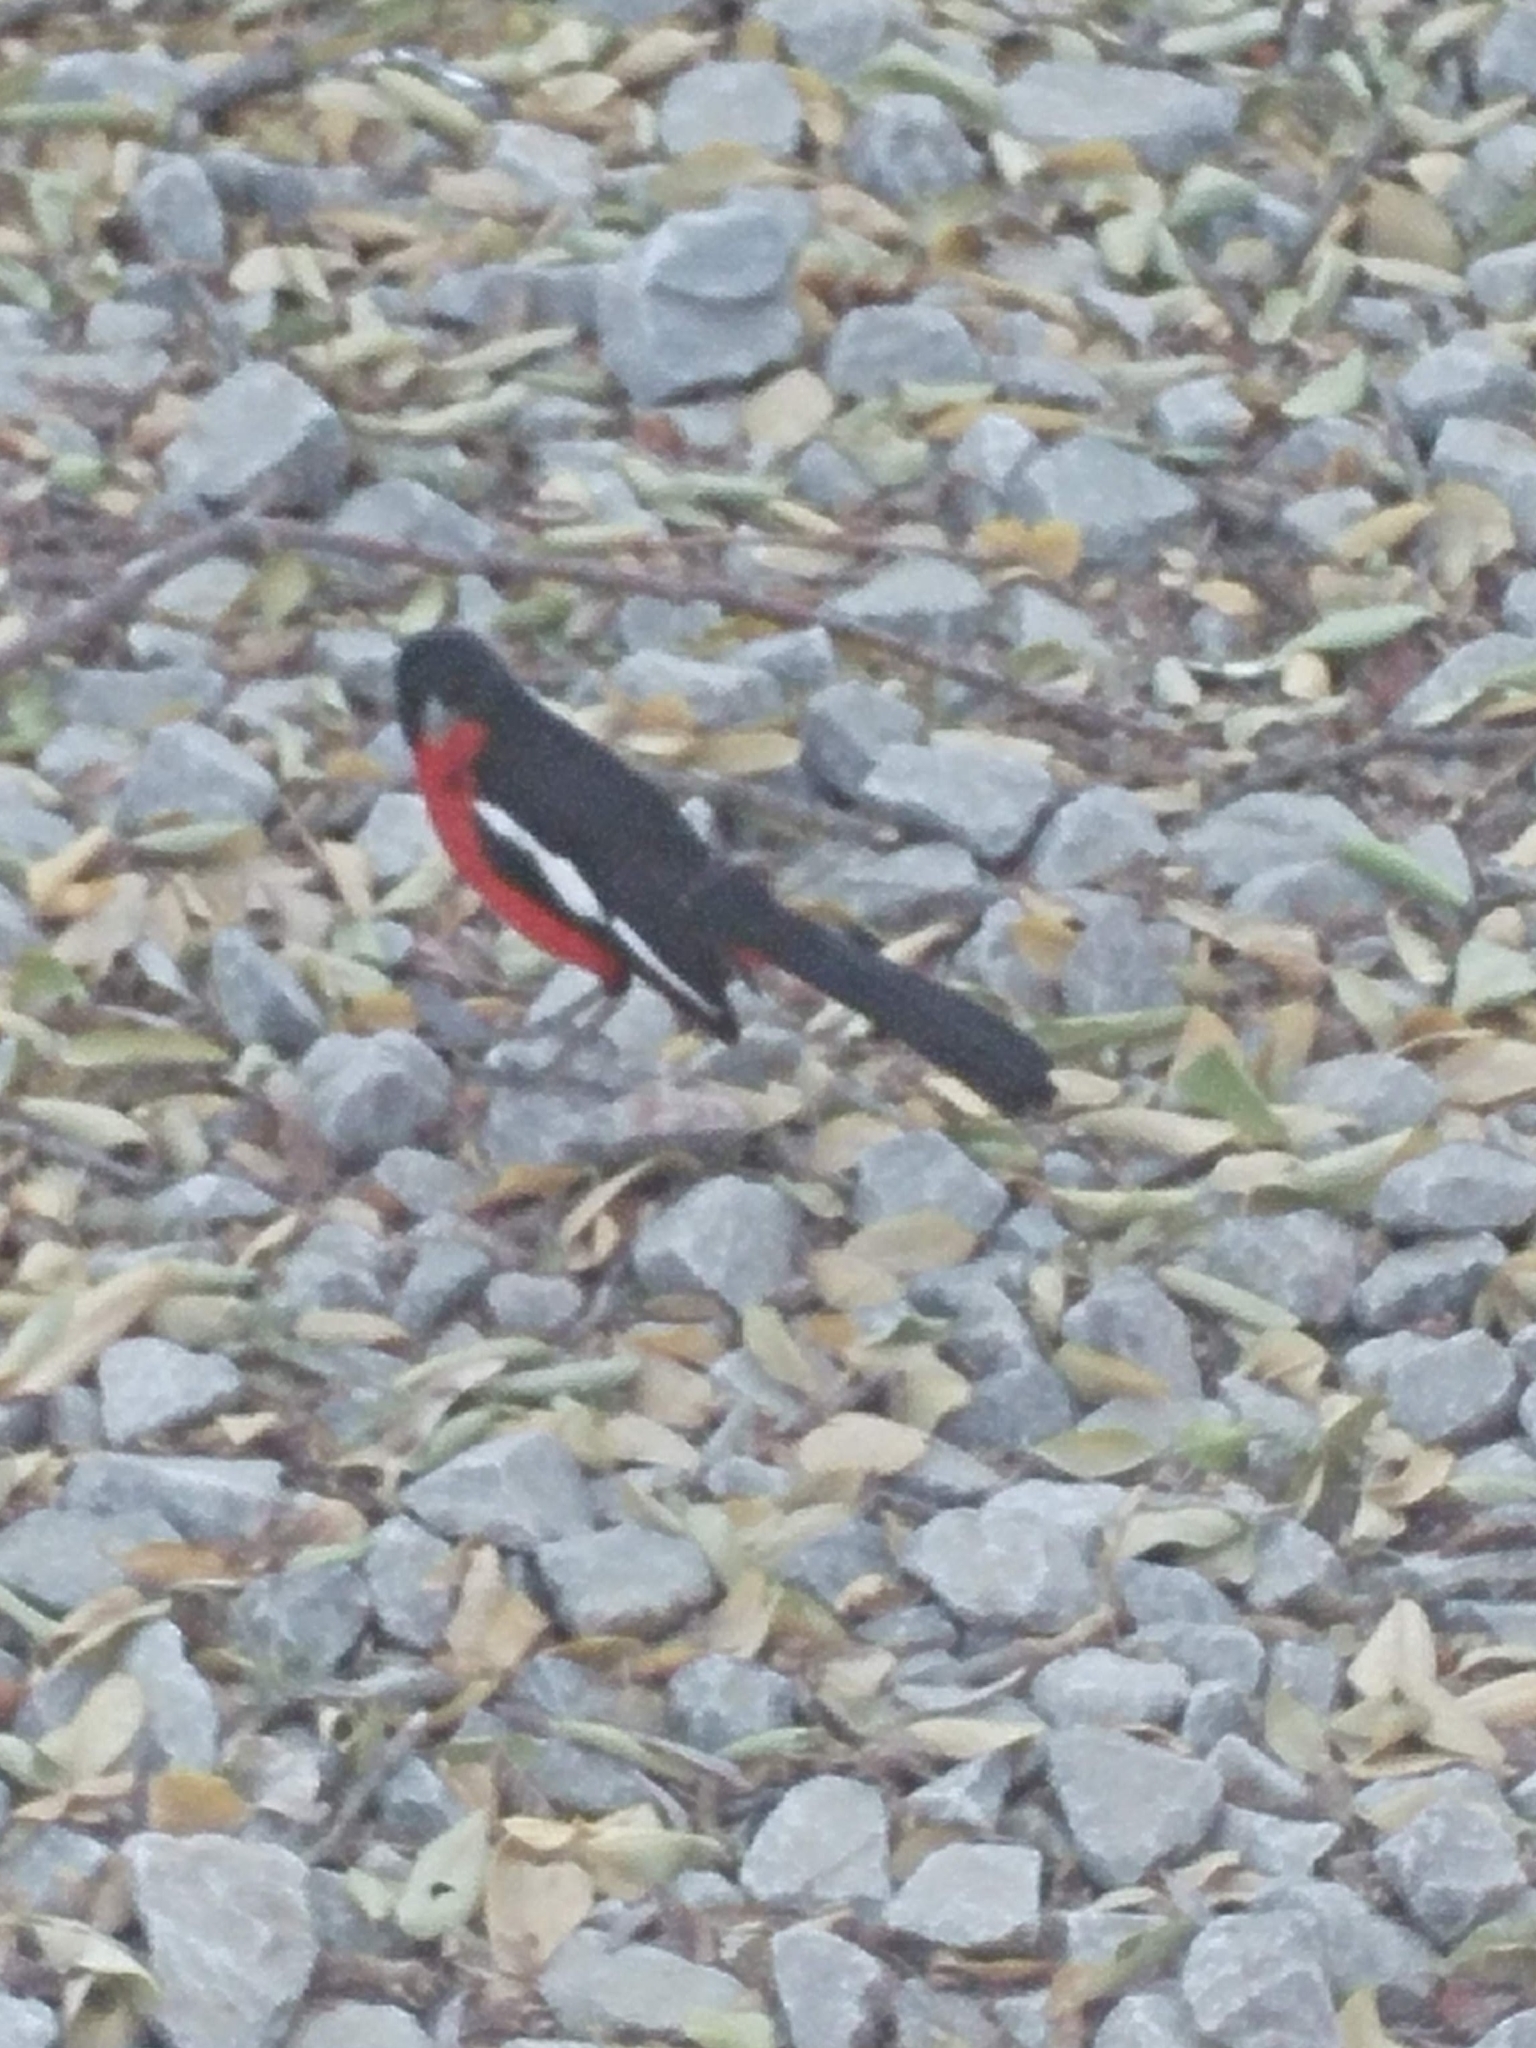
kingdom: Animalia
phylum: Chordata
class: Aves
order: Passeriformes
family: Malaconotidae
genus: Laniarius
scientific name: Laniarius atrococcineus
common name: Crimson-breasted shrike
